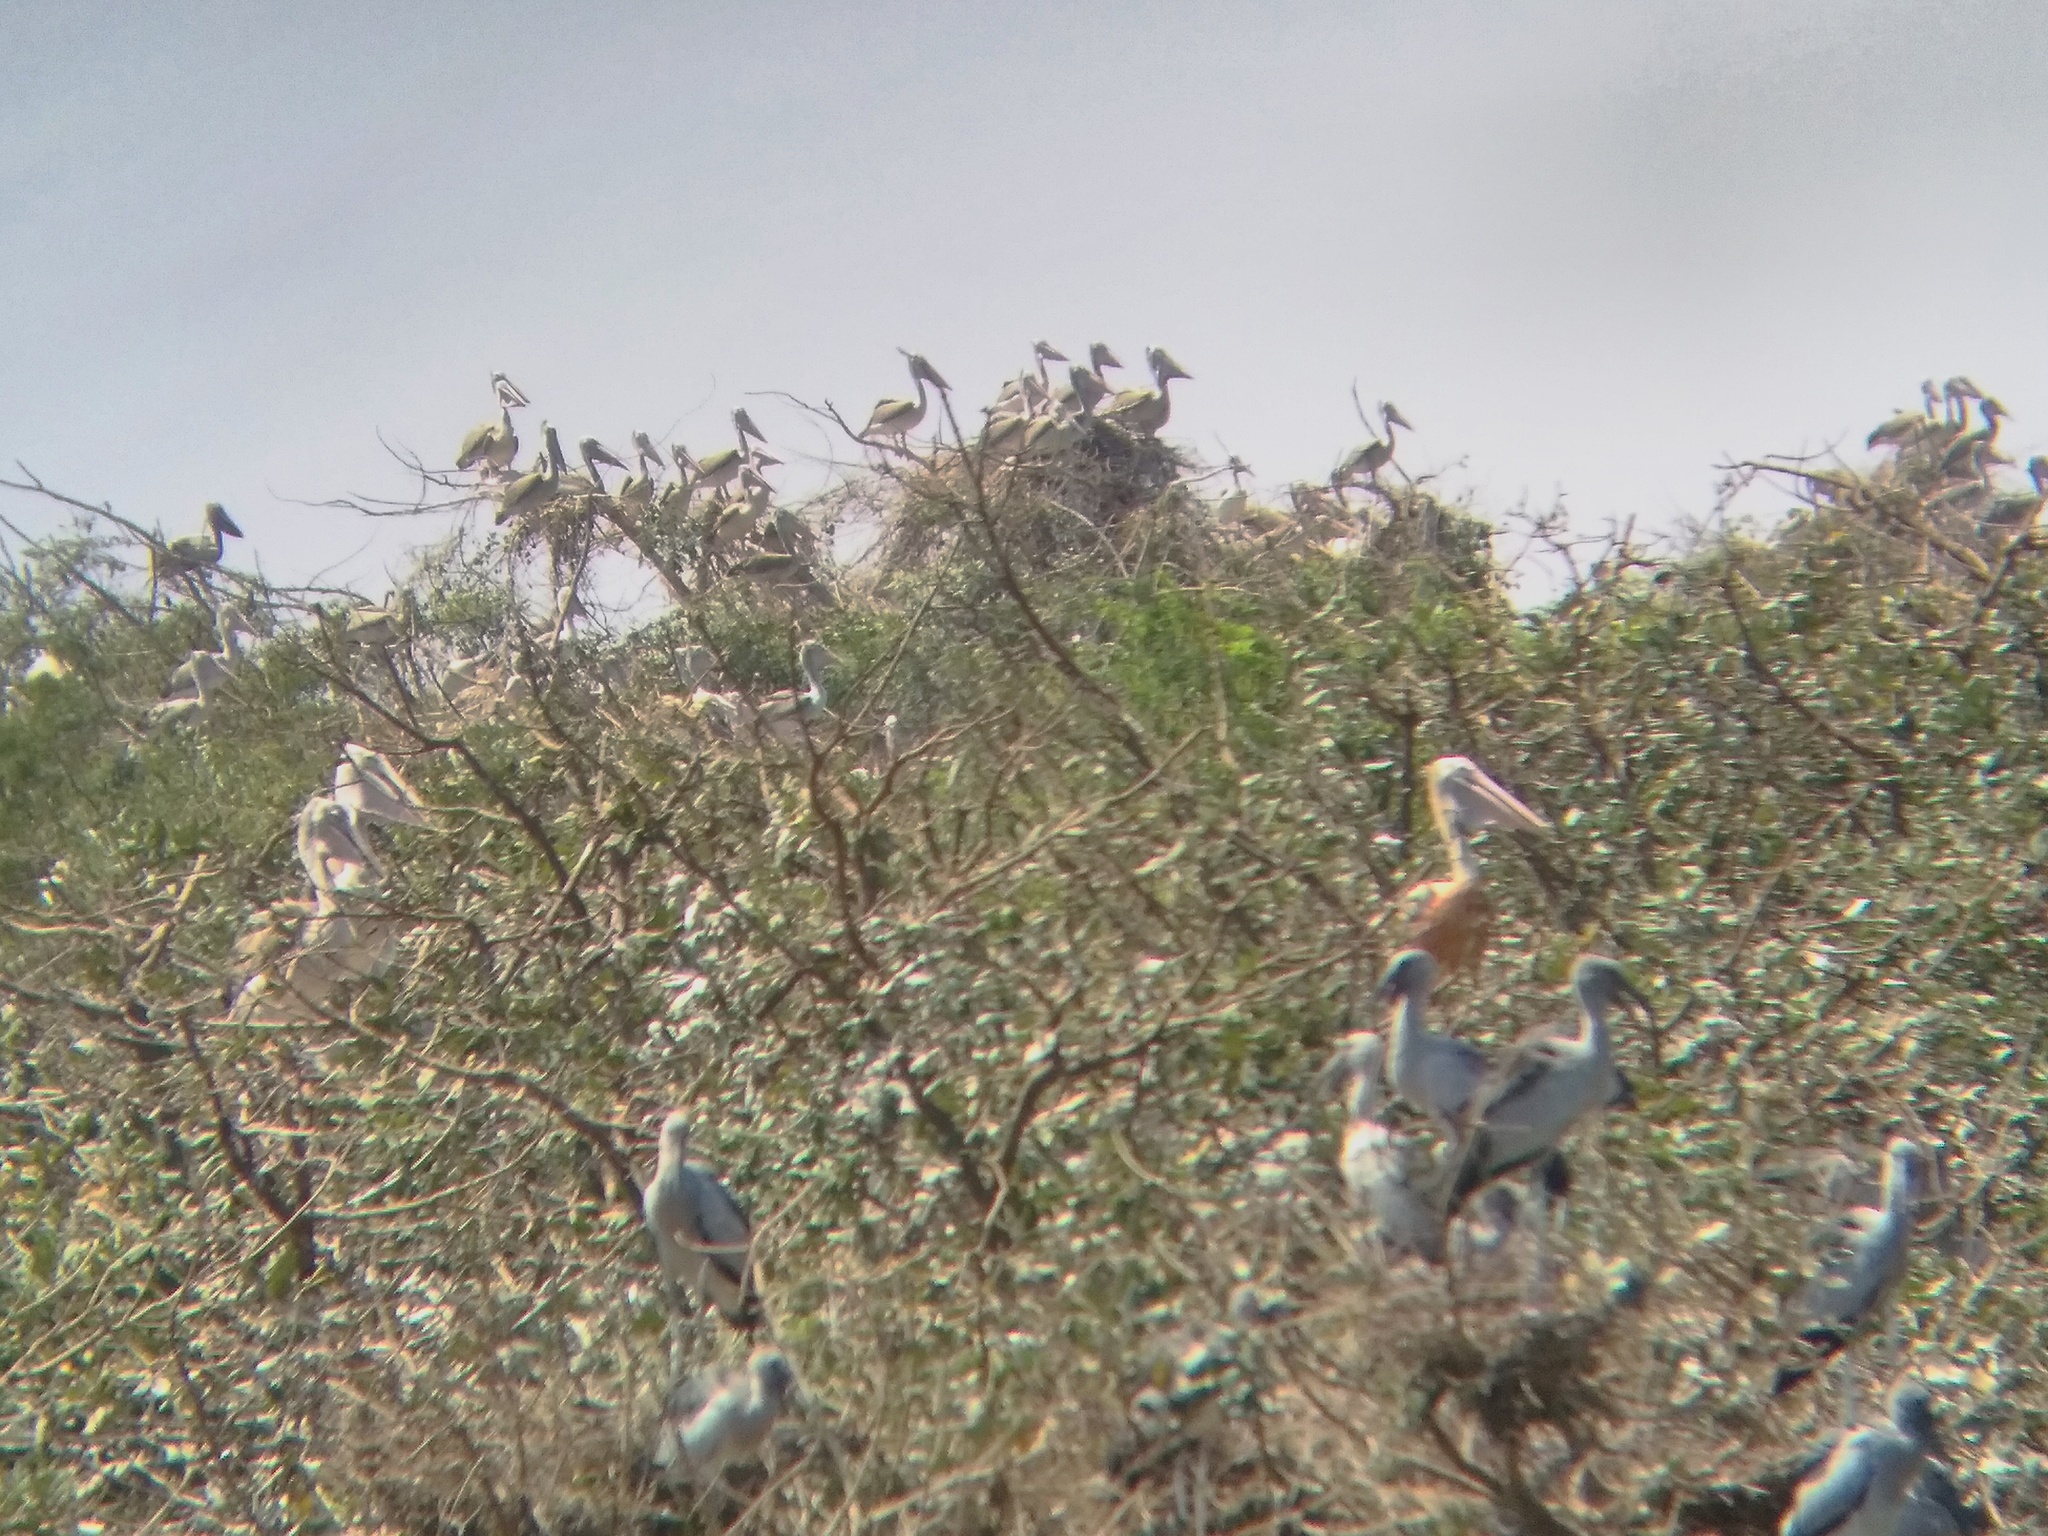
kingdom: Animalia
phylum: Chordata
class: Aves
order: Pelecaniformes
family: Pelecanidae
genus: Pelecanus
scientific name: Pelecanus philippensis
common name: Spot-billed pelican
